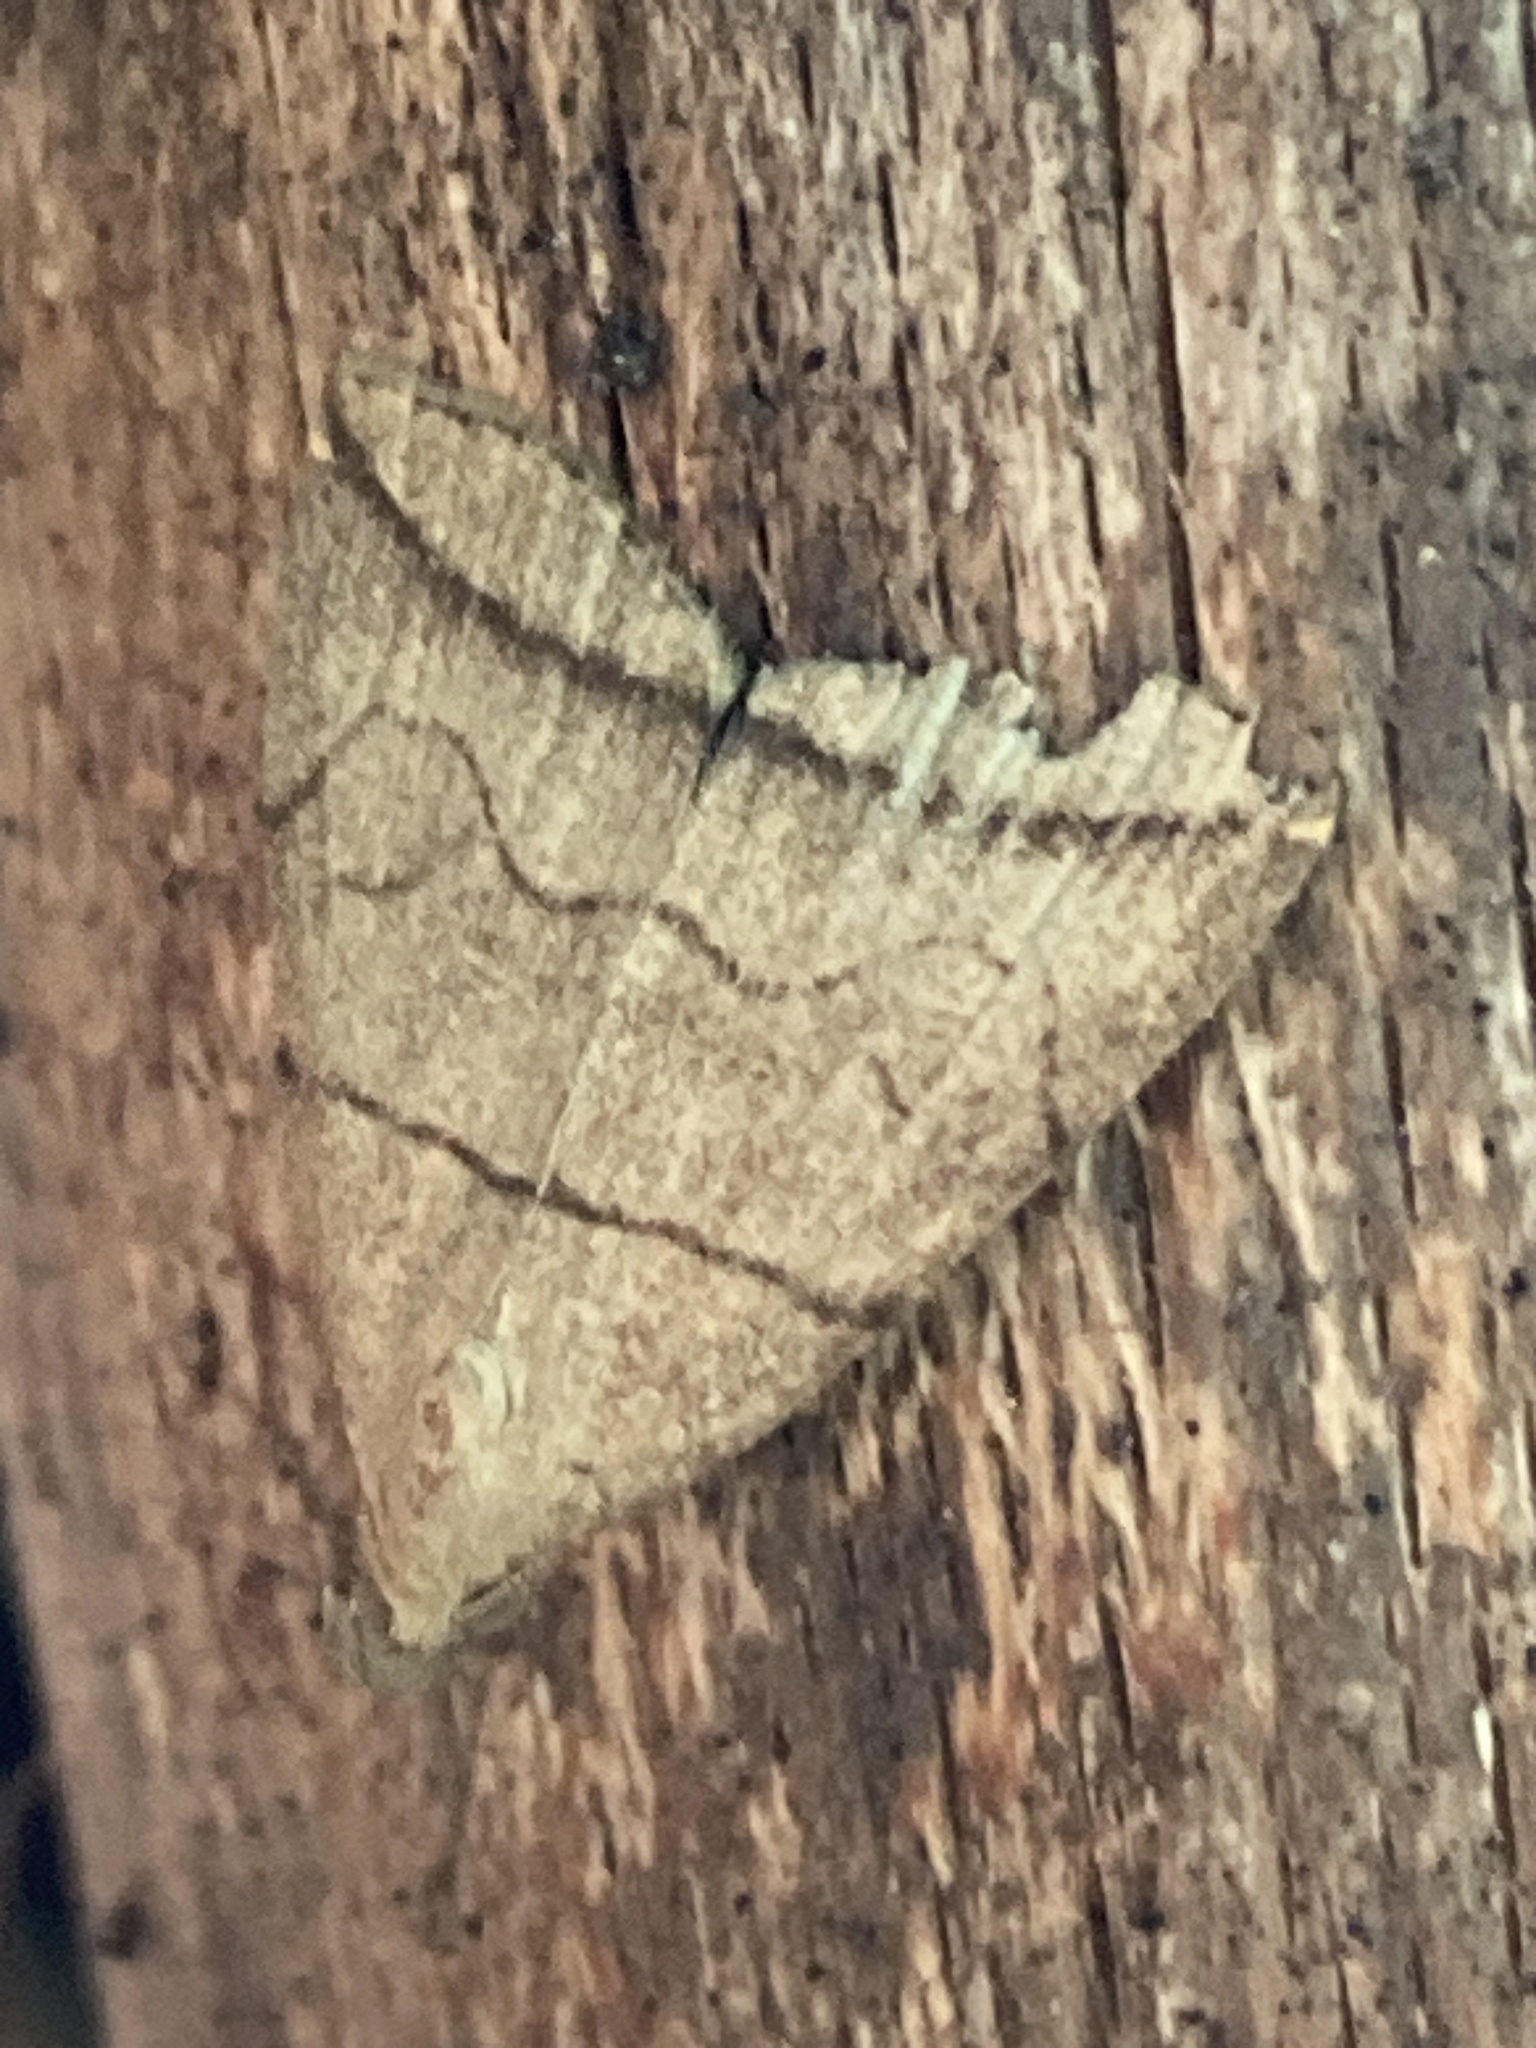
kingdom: Animalia
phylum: Arthropoda
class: Insecta
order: Lepidoptera
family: Erebidae
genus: Herminia
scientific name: Herminia grisealis
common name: Small fan-foot
